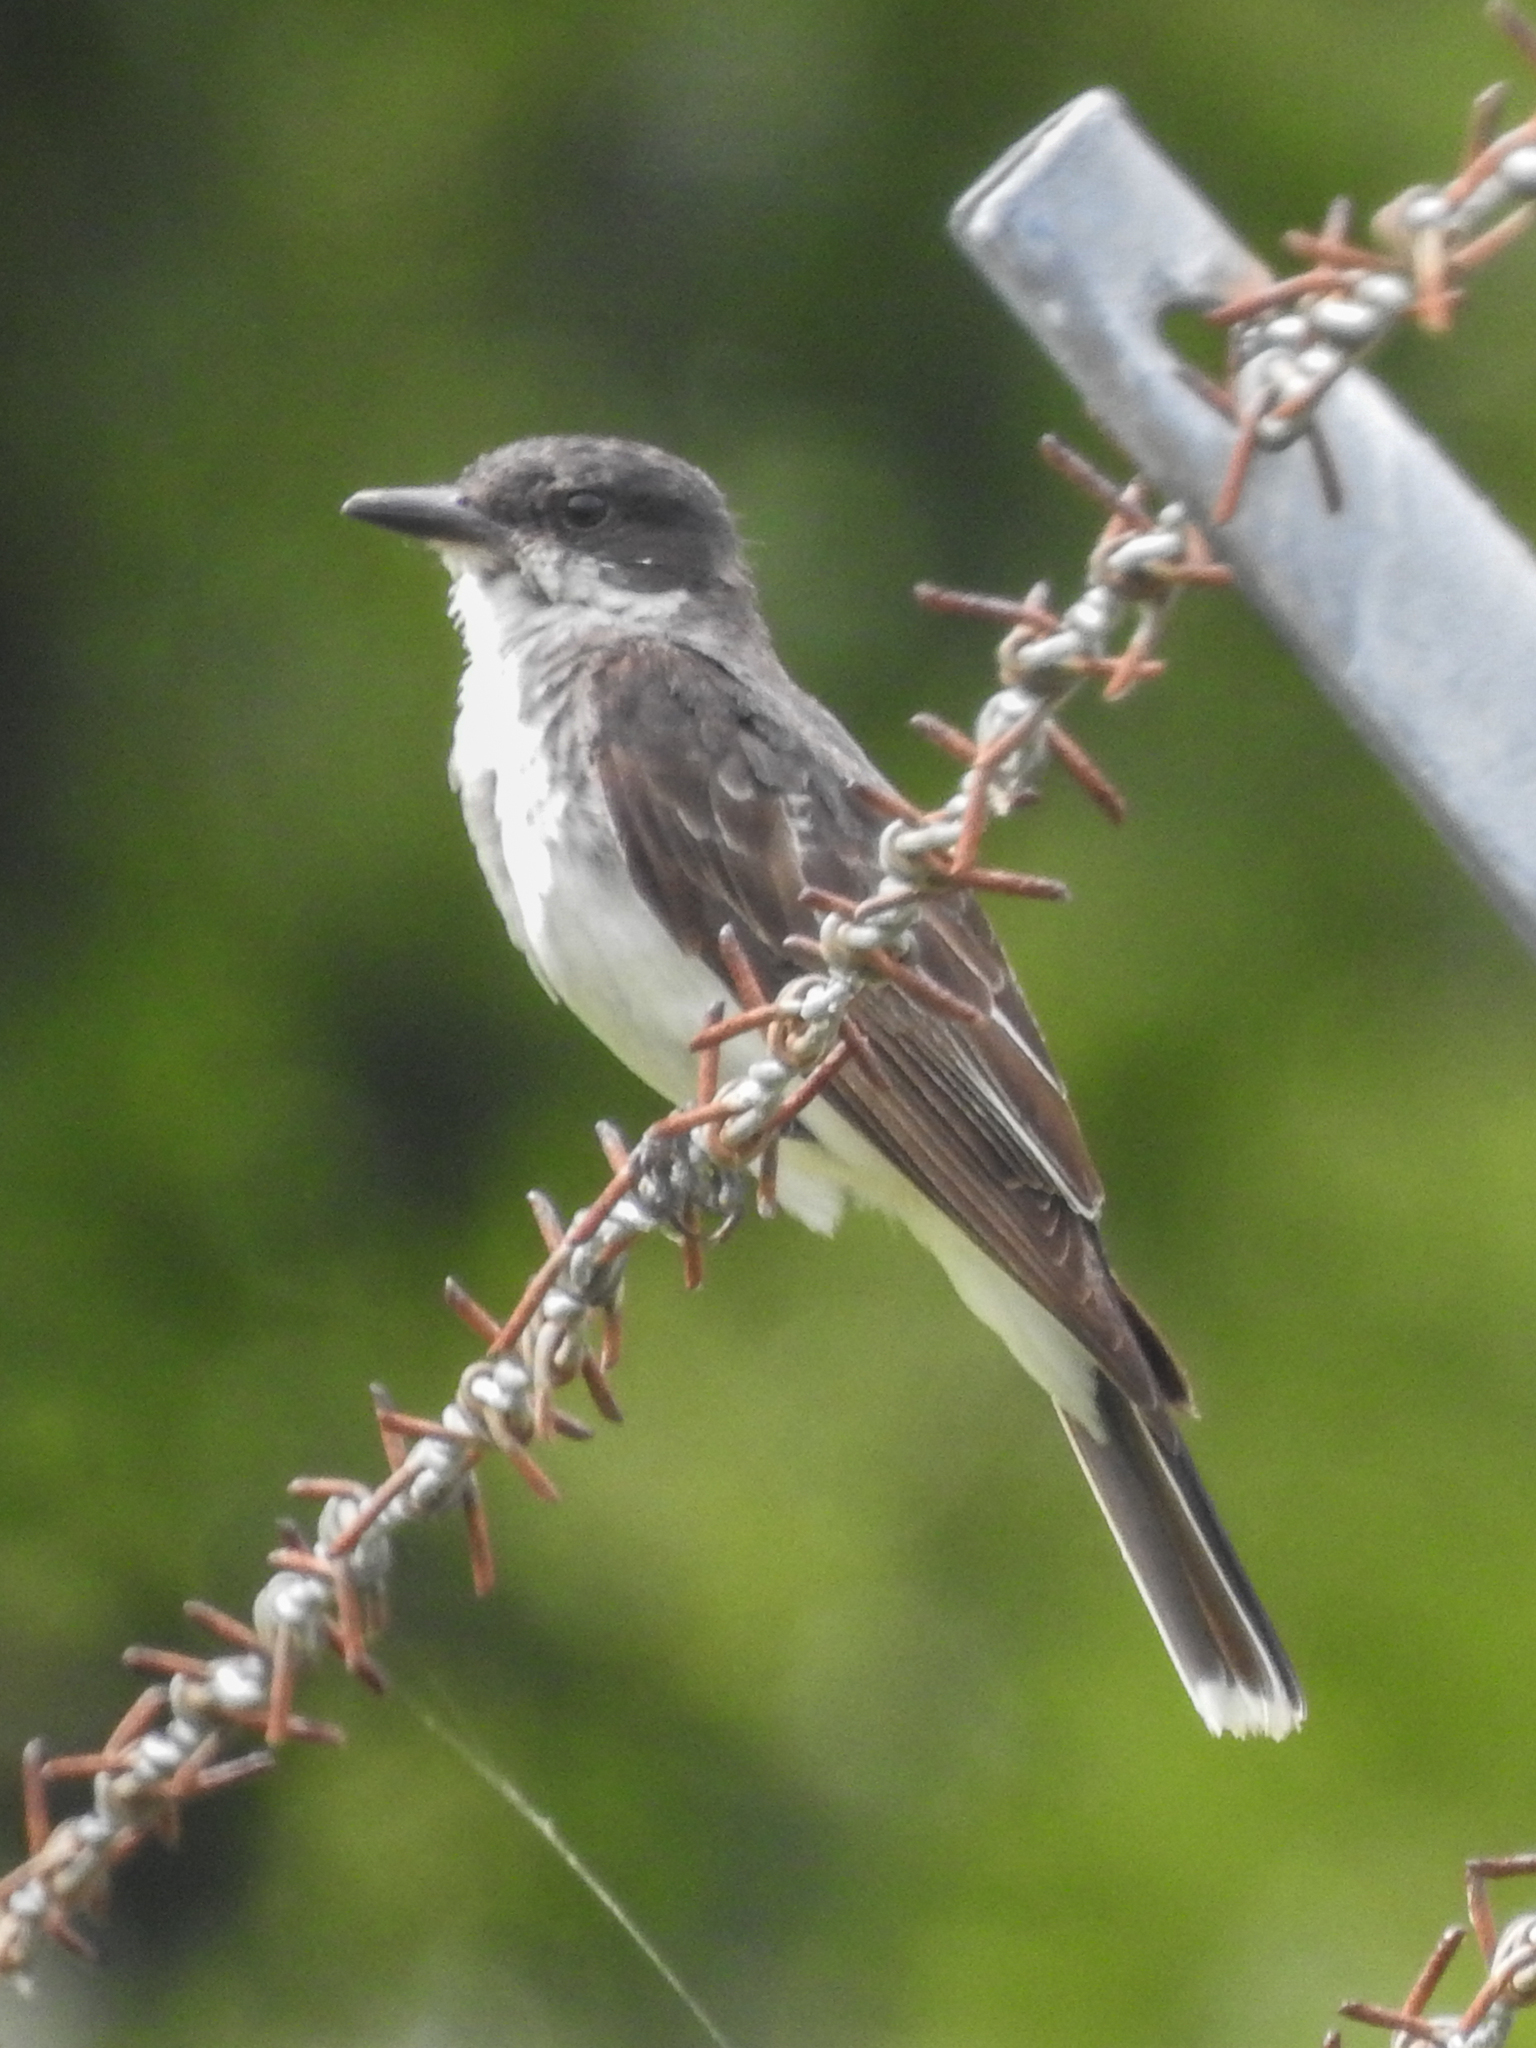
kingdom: Animalia
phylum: Chordata
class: Aves
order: Passeriformes
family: Tyrannidae
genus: Tyrannus
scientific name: Tyrannus tyrannus
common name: Eastern kingbird
